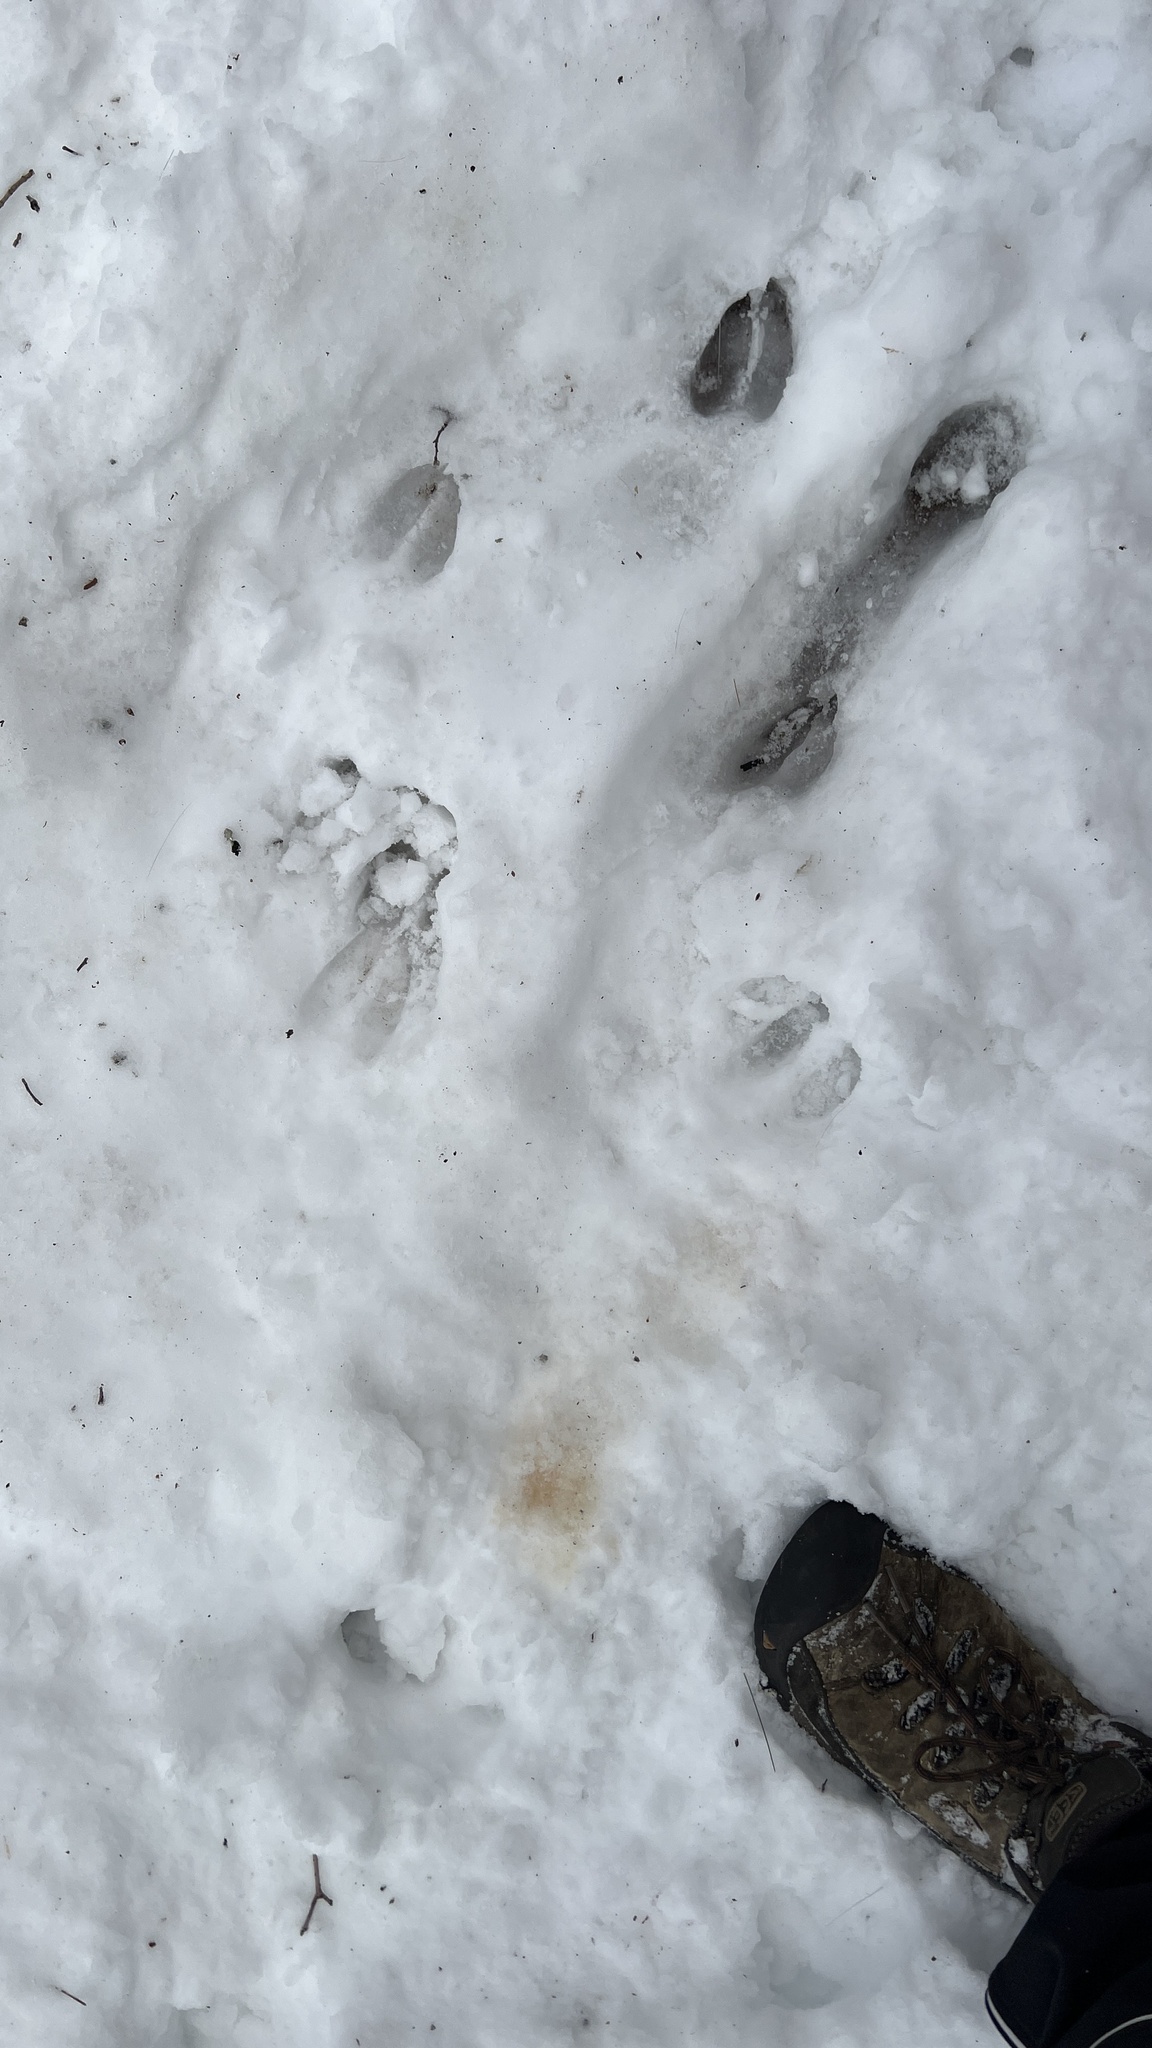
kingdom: Animalia
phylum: Chordata
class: Mammalia
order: Artiodactyla
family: Cervidae
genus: Odocoileus
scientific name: Odocoileus virginianus
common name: White-tailed deer
